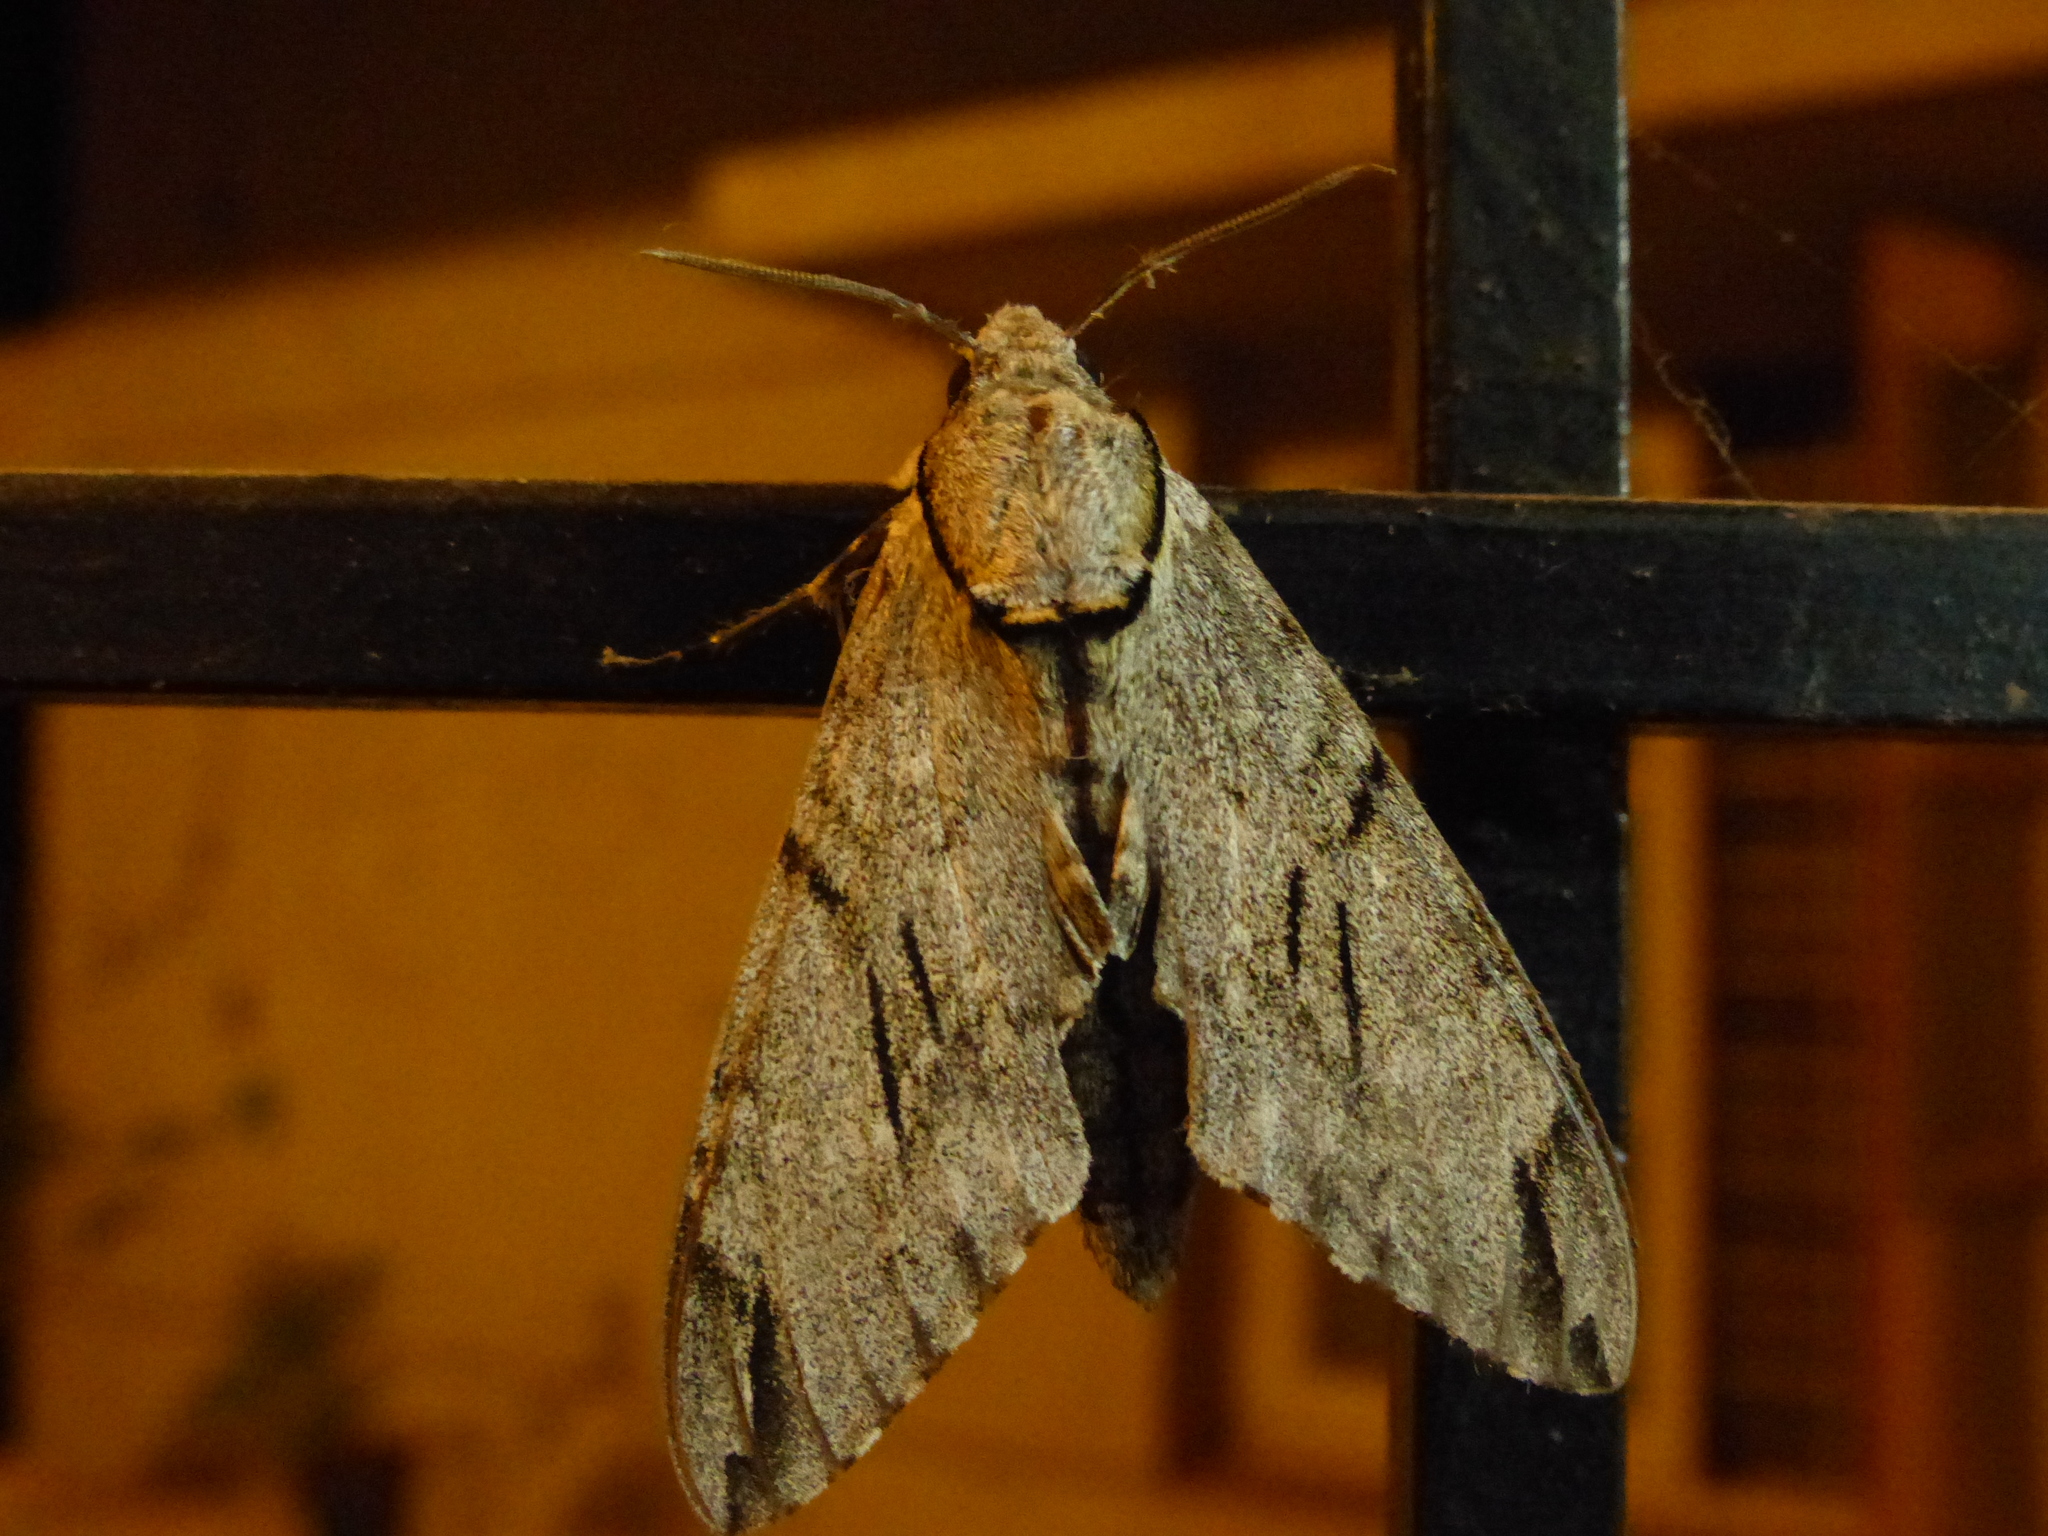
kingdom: Animalia
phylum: Arthropoda
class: Insecta
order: Lepidoptera
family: Sphingidae
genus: Psilogramma
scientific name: Psilogramma vates
